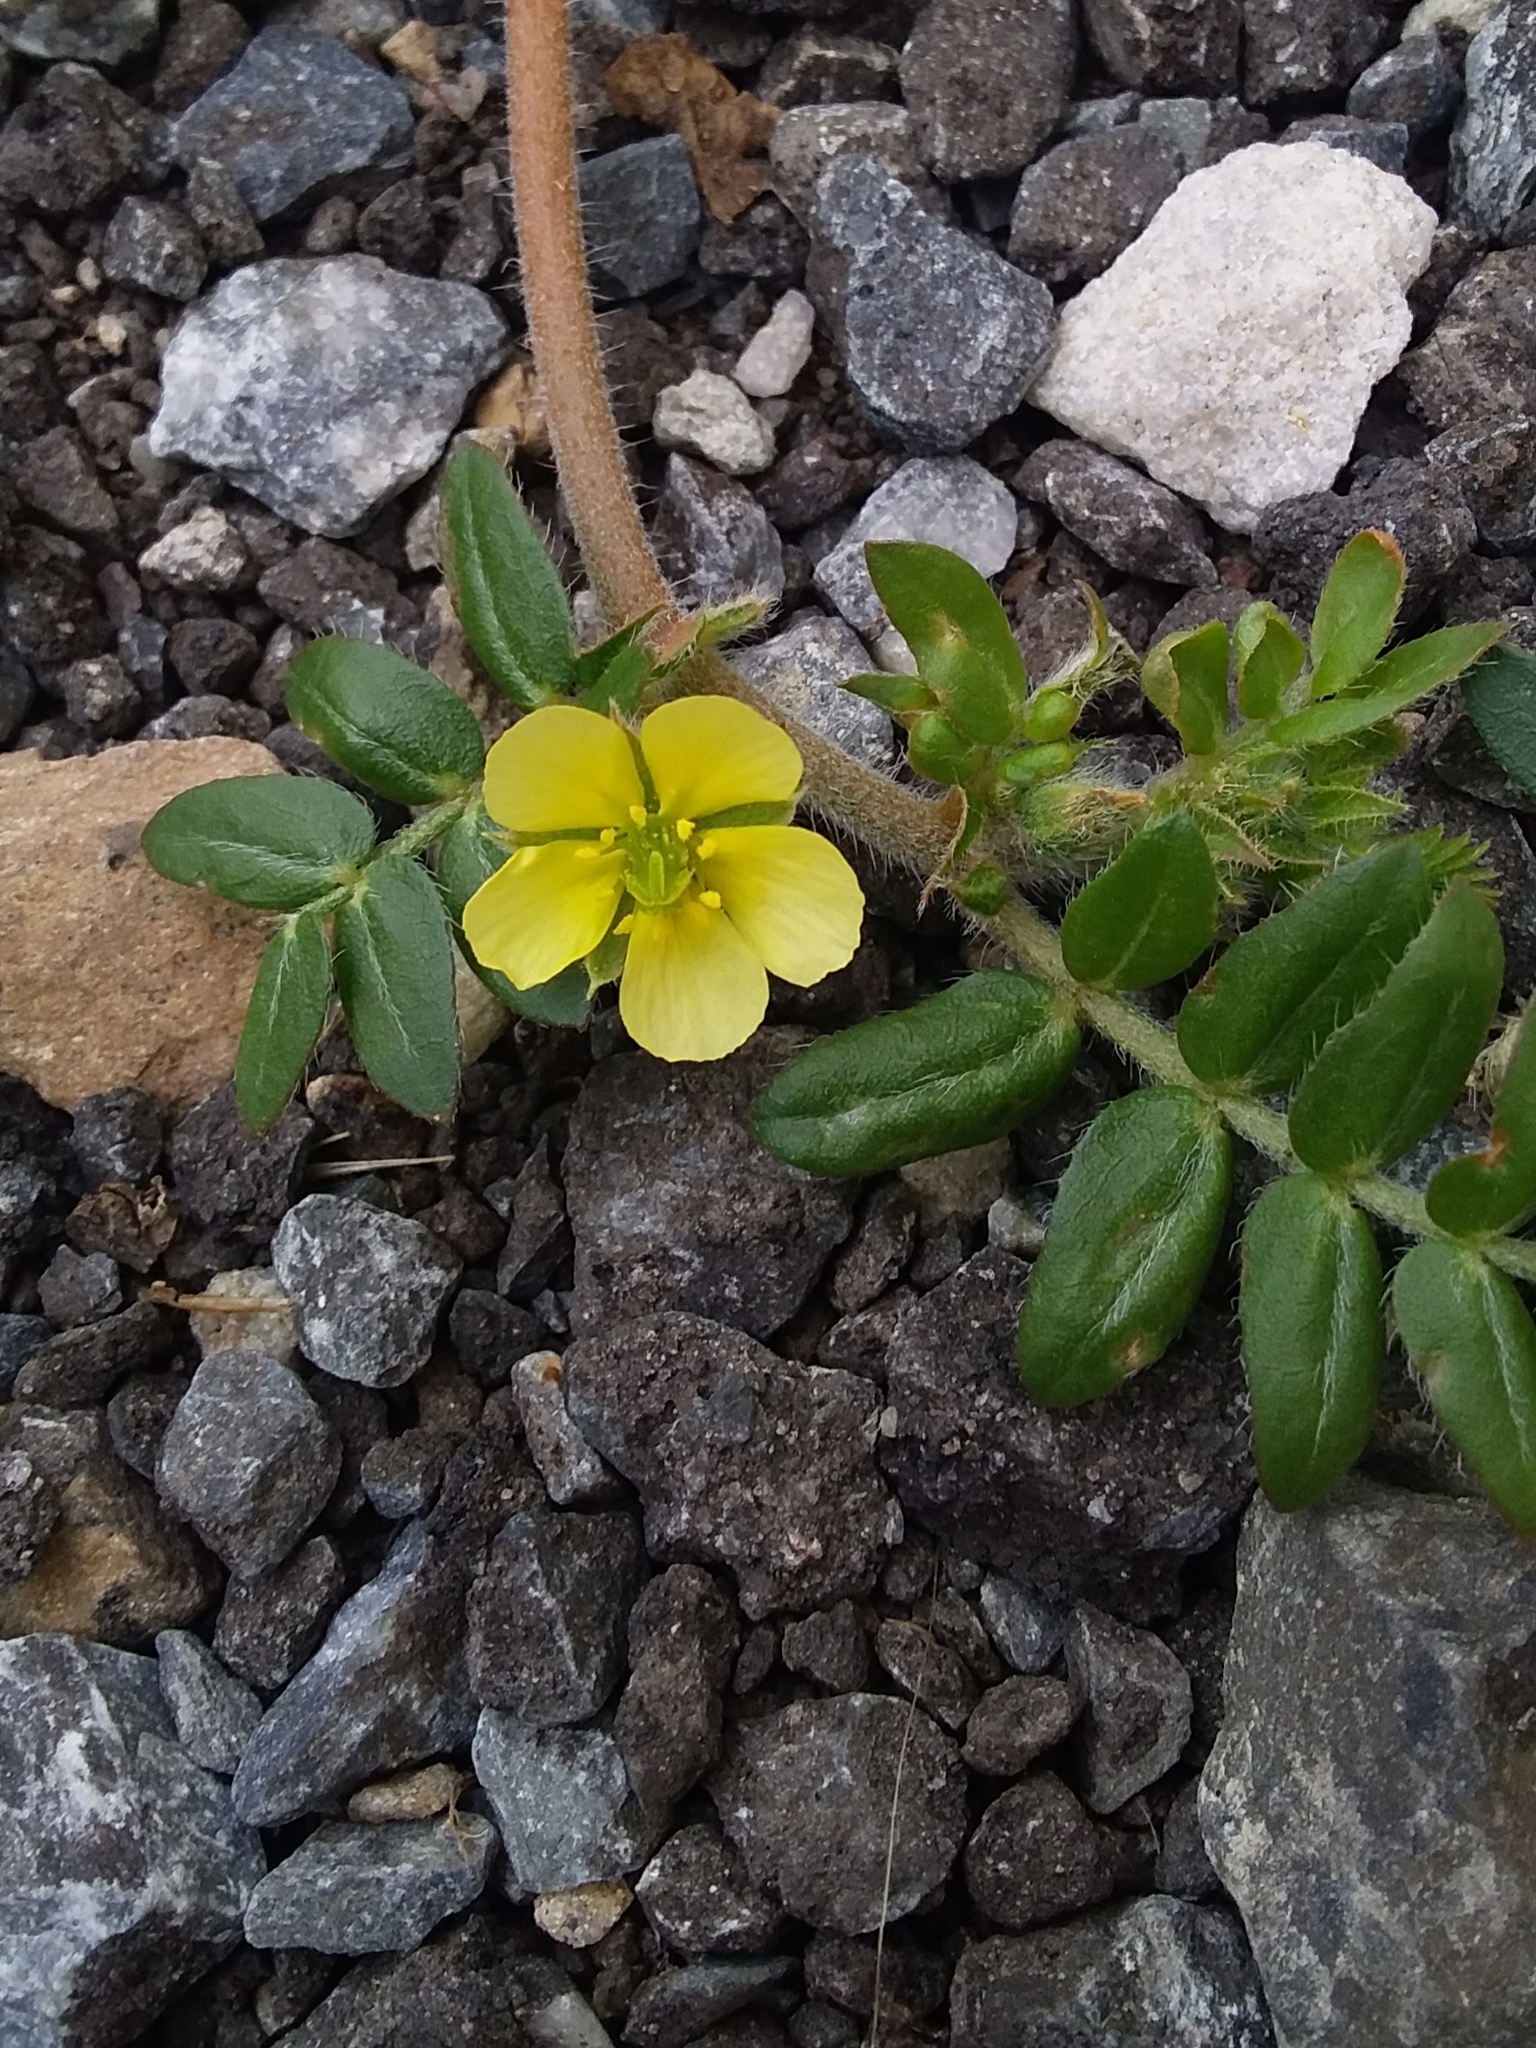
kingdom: Plantae
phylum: Tracheophyta
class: Magnoliopsida
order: Zygophyllales
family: Zygophyllaceae
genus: Tribulus
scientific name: Tribulus terrestris
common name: Puncturevine
